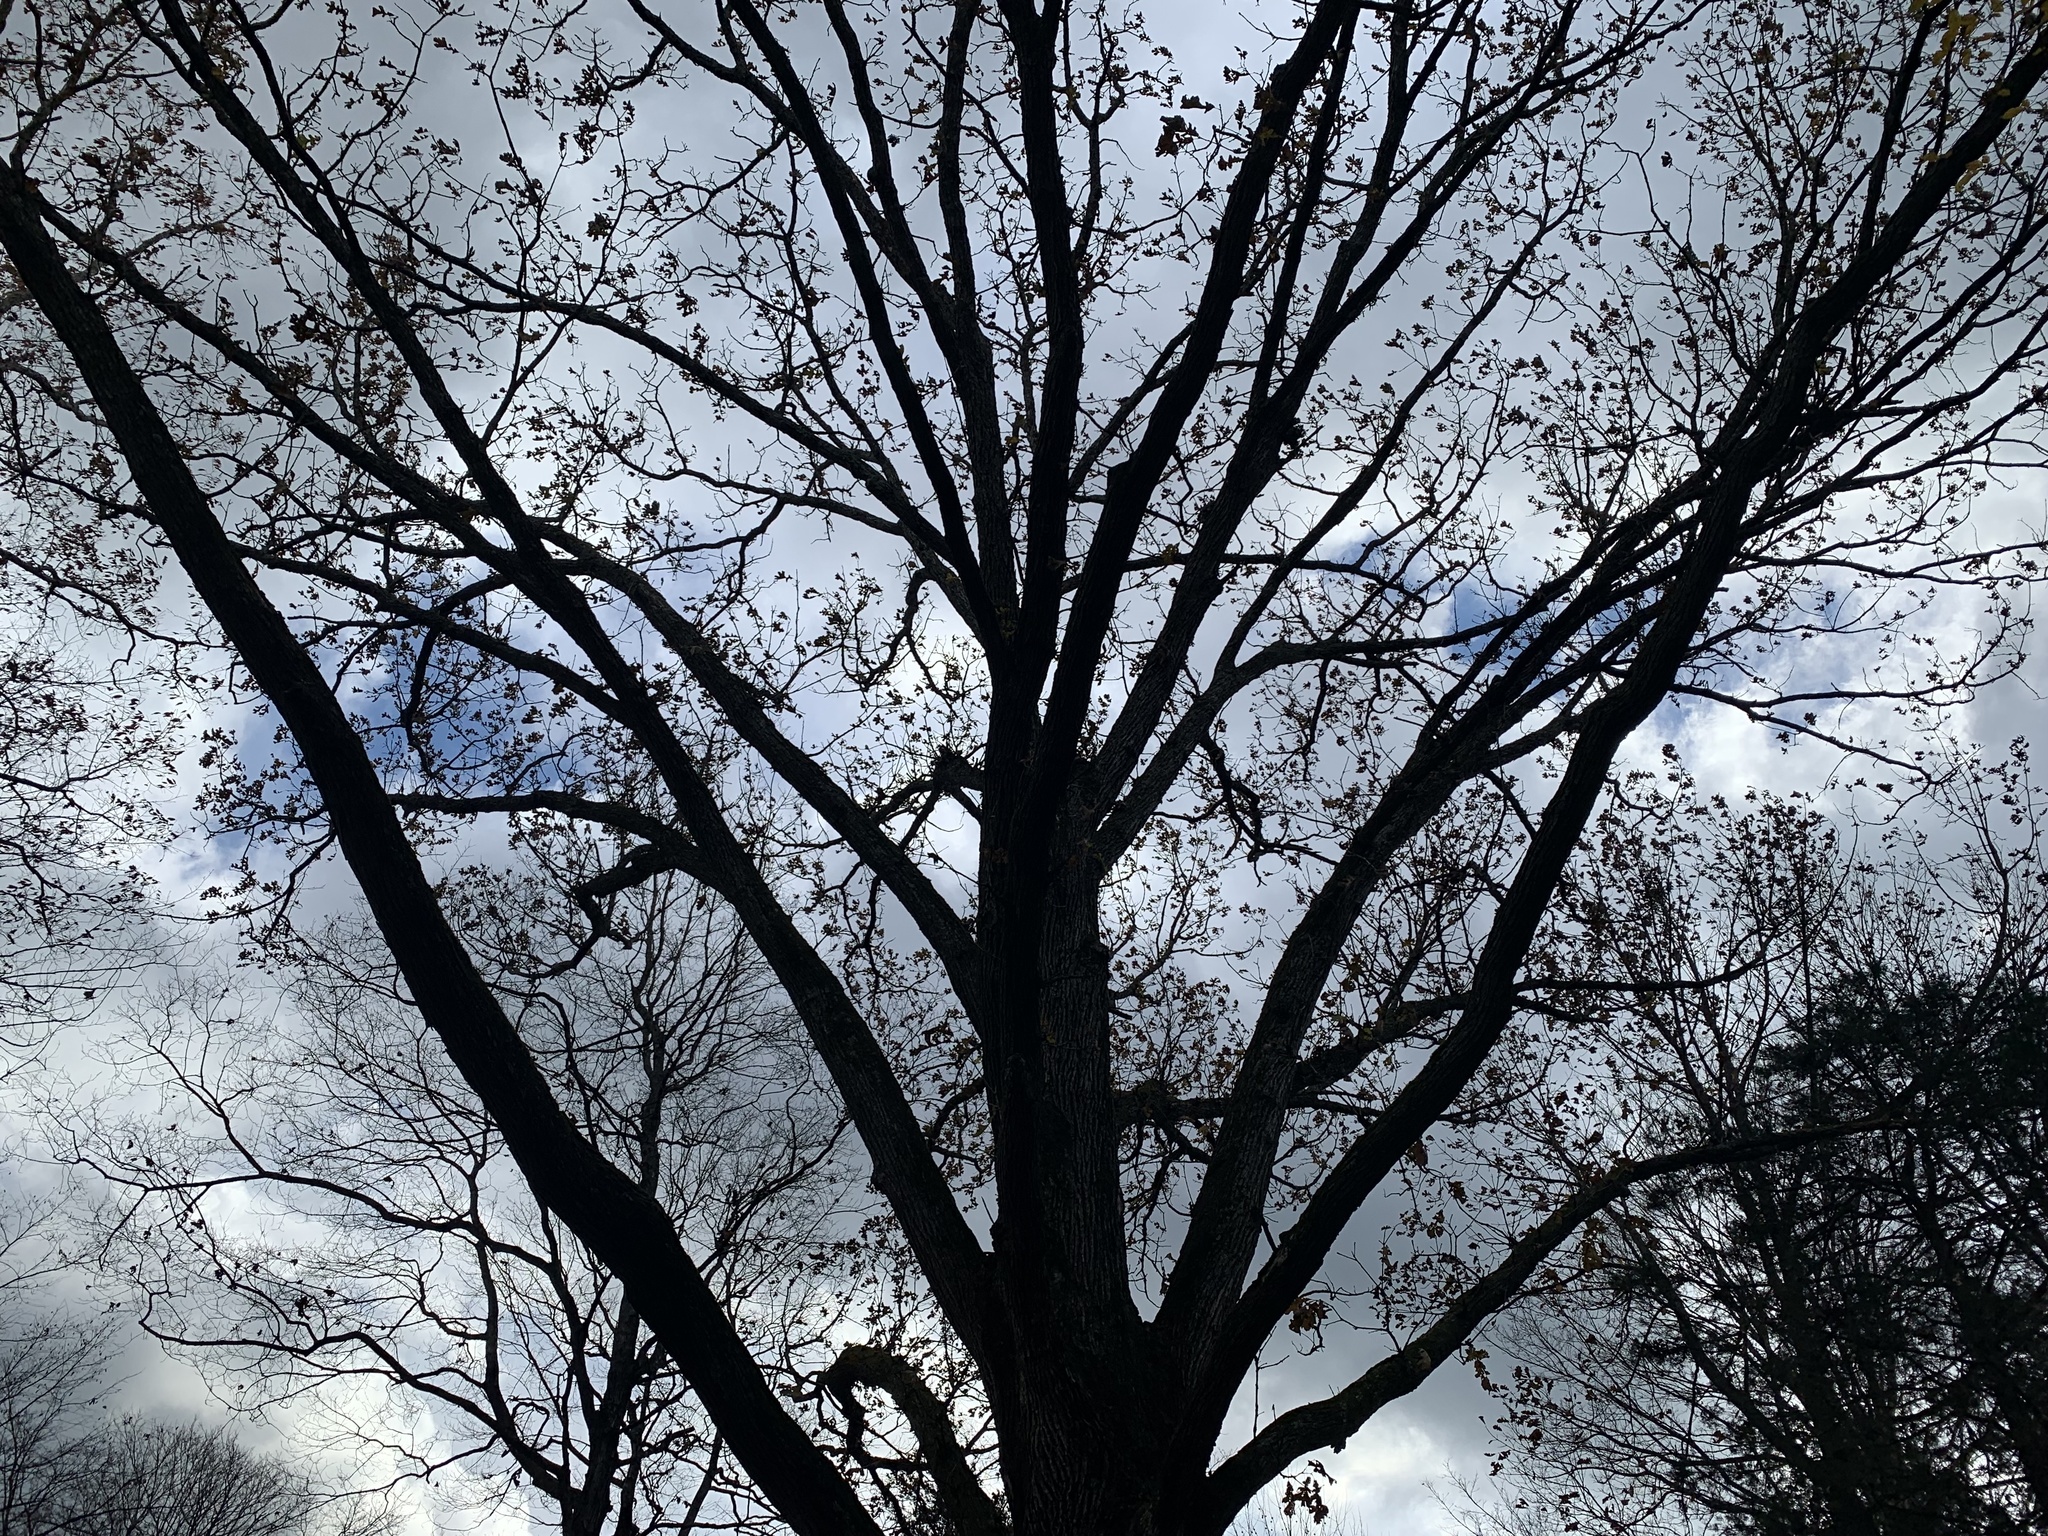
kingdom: Plantae
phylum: Tracheophyta
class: Magnoliopsida
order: Fagales
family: Fagaceae
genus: Quercus
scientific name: Quercus macrocarpa
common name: Bur oak
